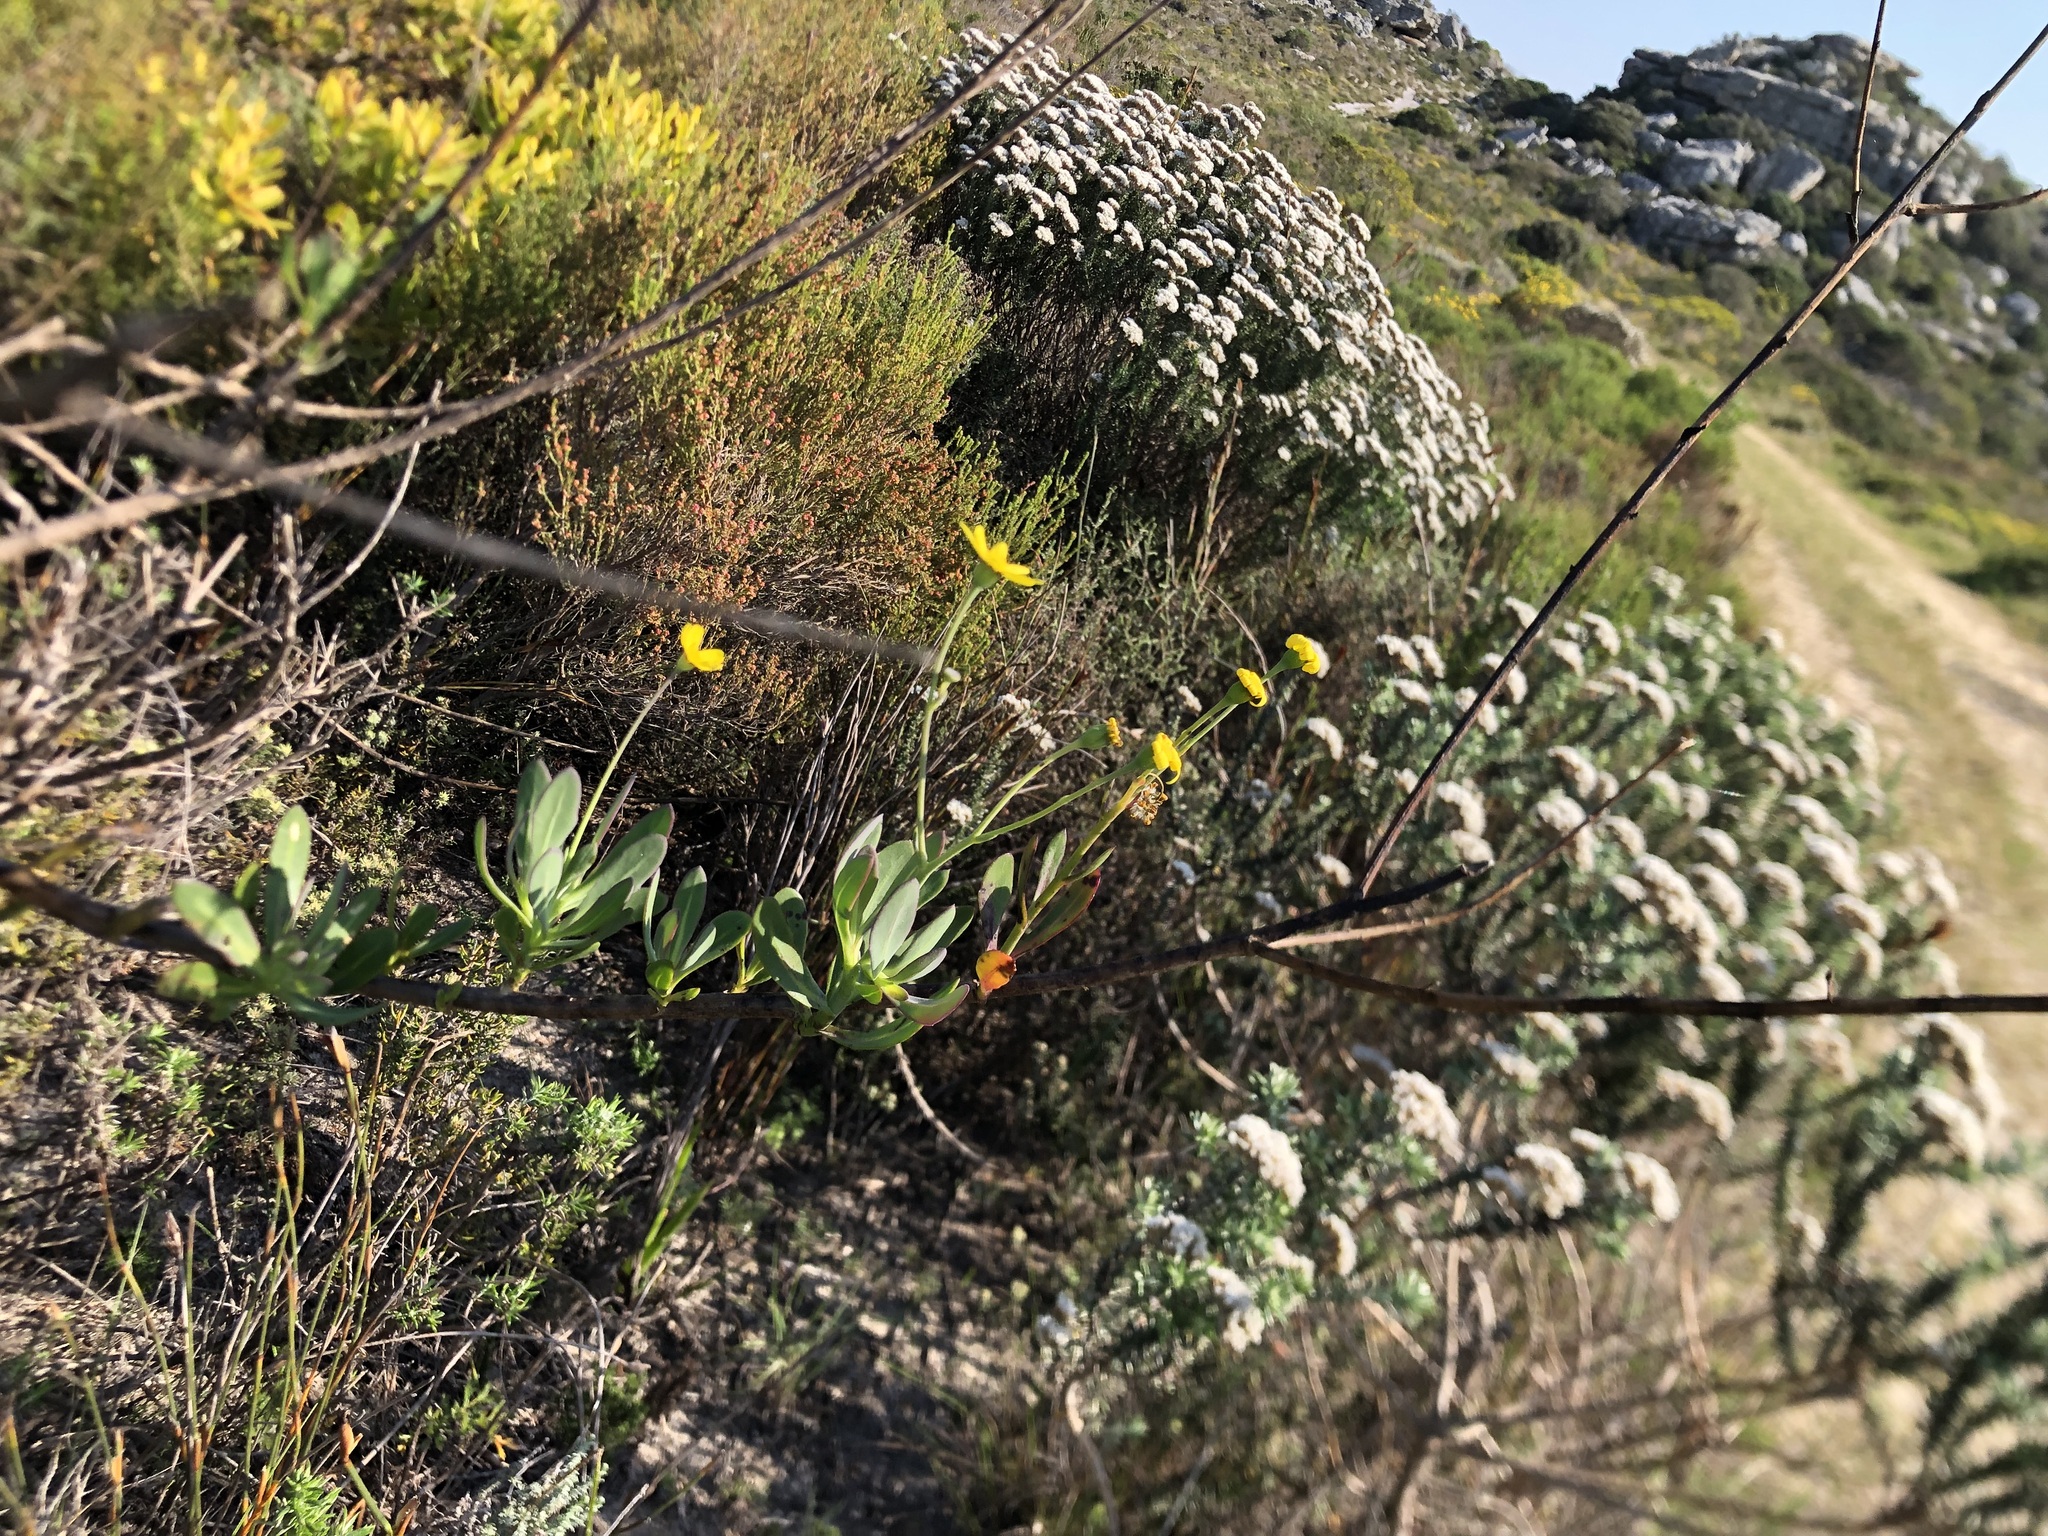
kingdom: Plantae
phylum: Tracheophyta
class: Magnoliopsida
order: Asterales
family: Asteraceae
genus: Othonna
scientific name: Othonna coronopifolia
